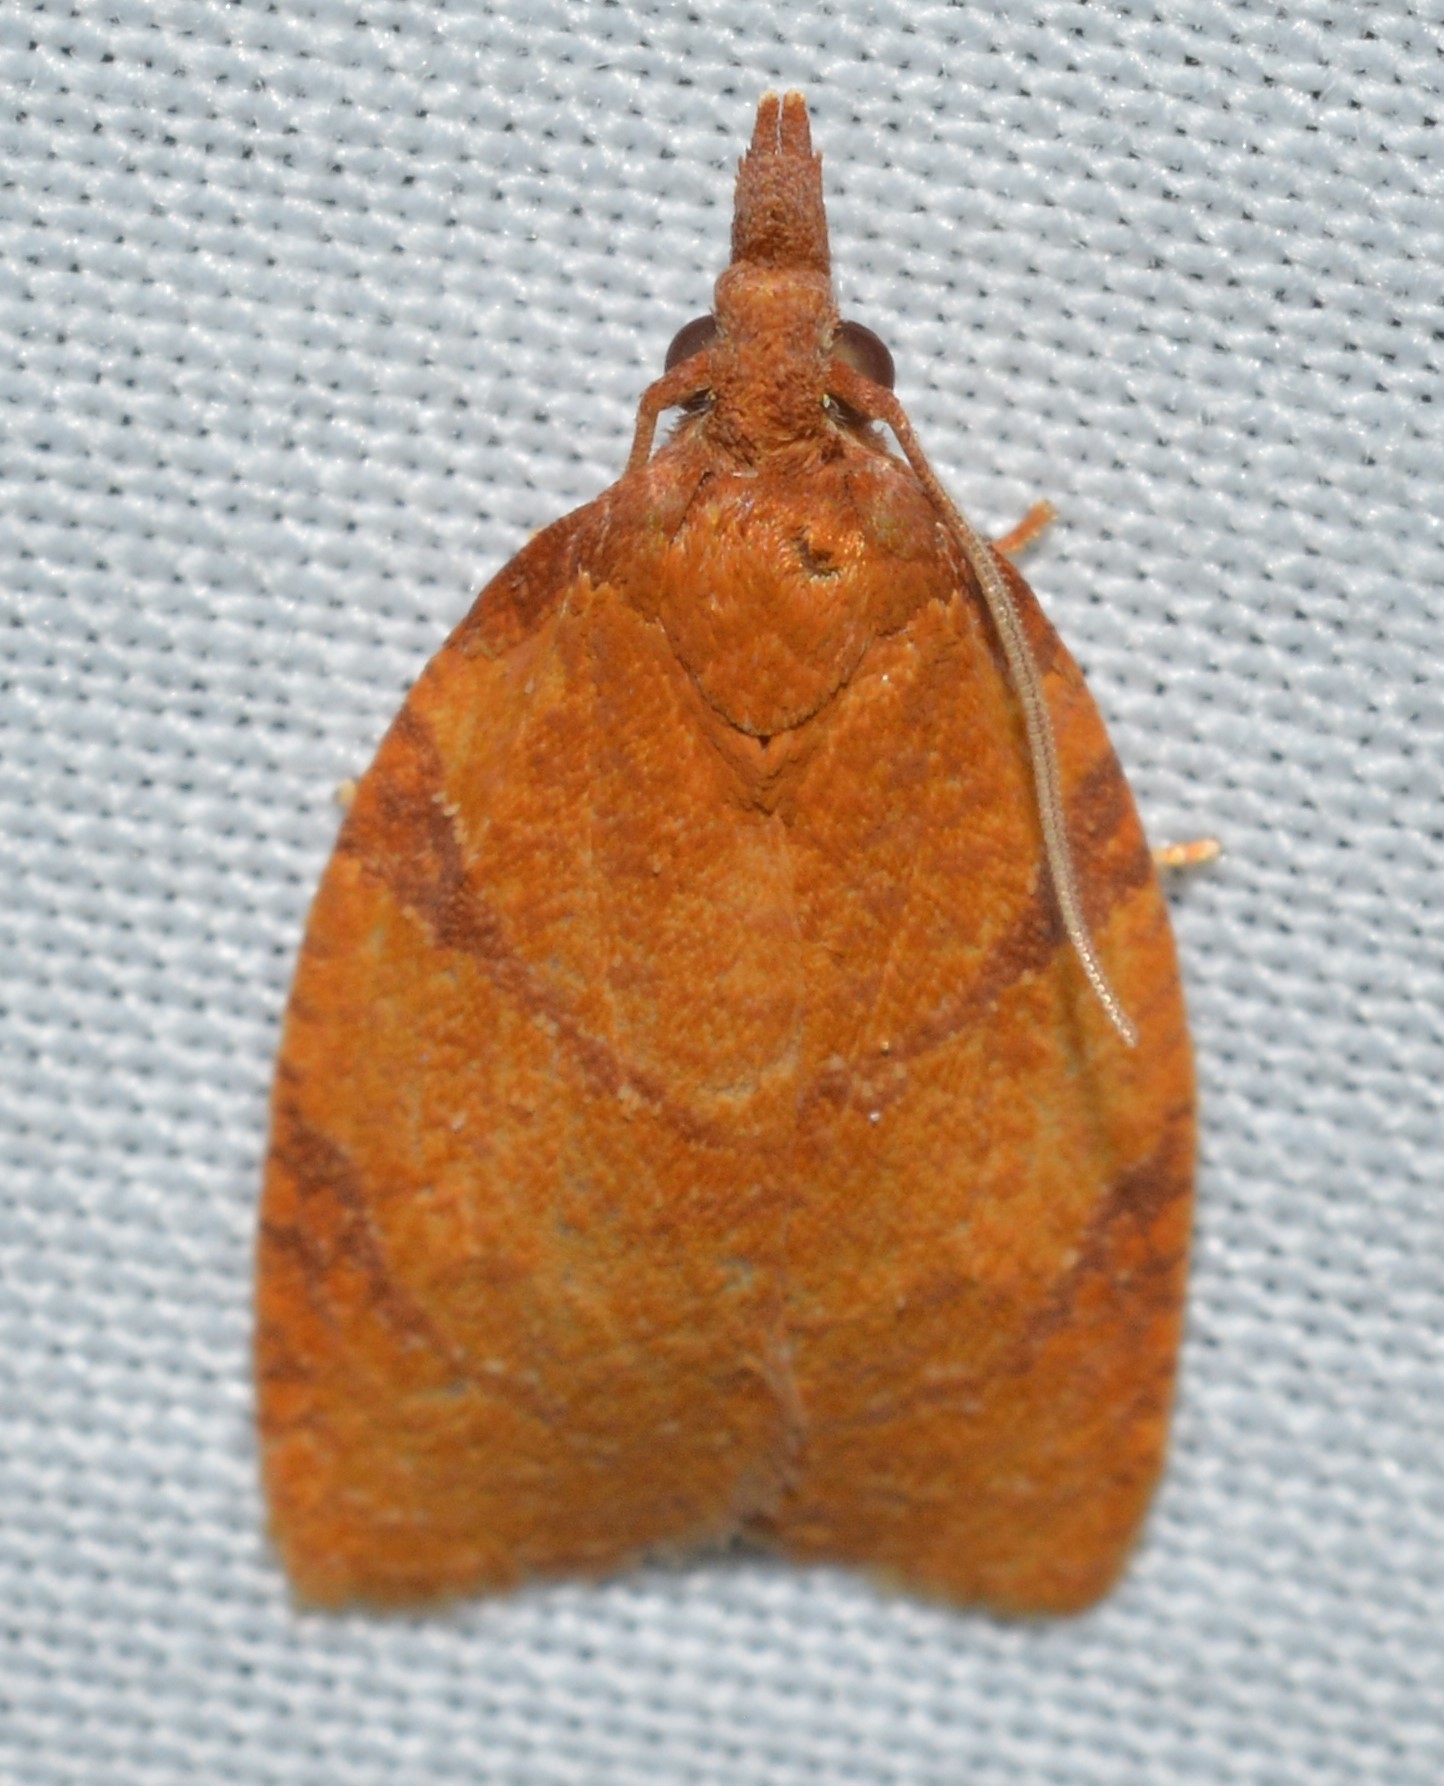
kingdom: Animalia
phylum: Arthropoda
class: Insecta
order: Lepidoptera
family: Tortricidae
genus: Cenopis
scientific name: Cenopis directana
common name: Chokecherry leafroller moth
